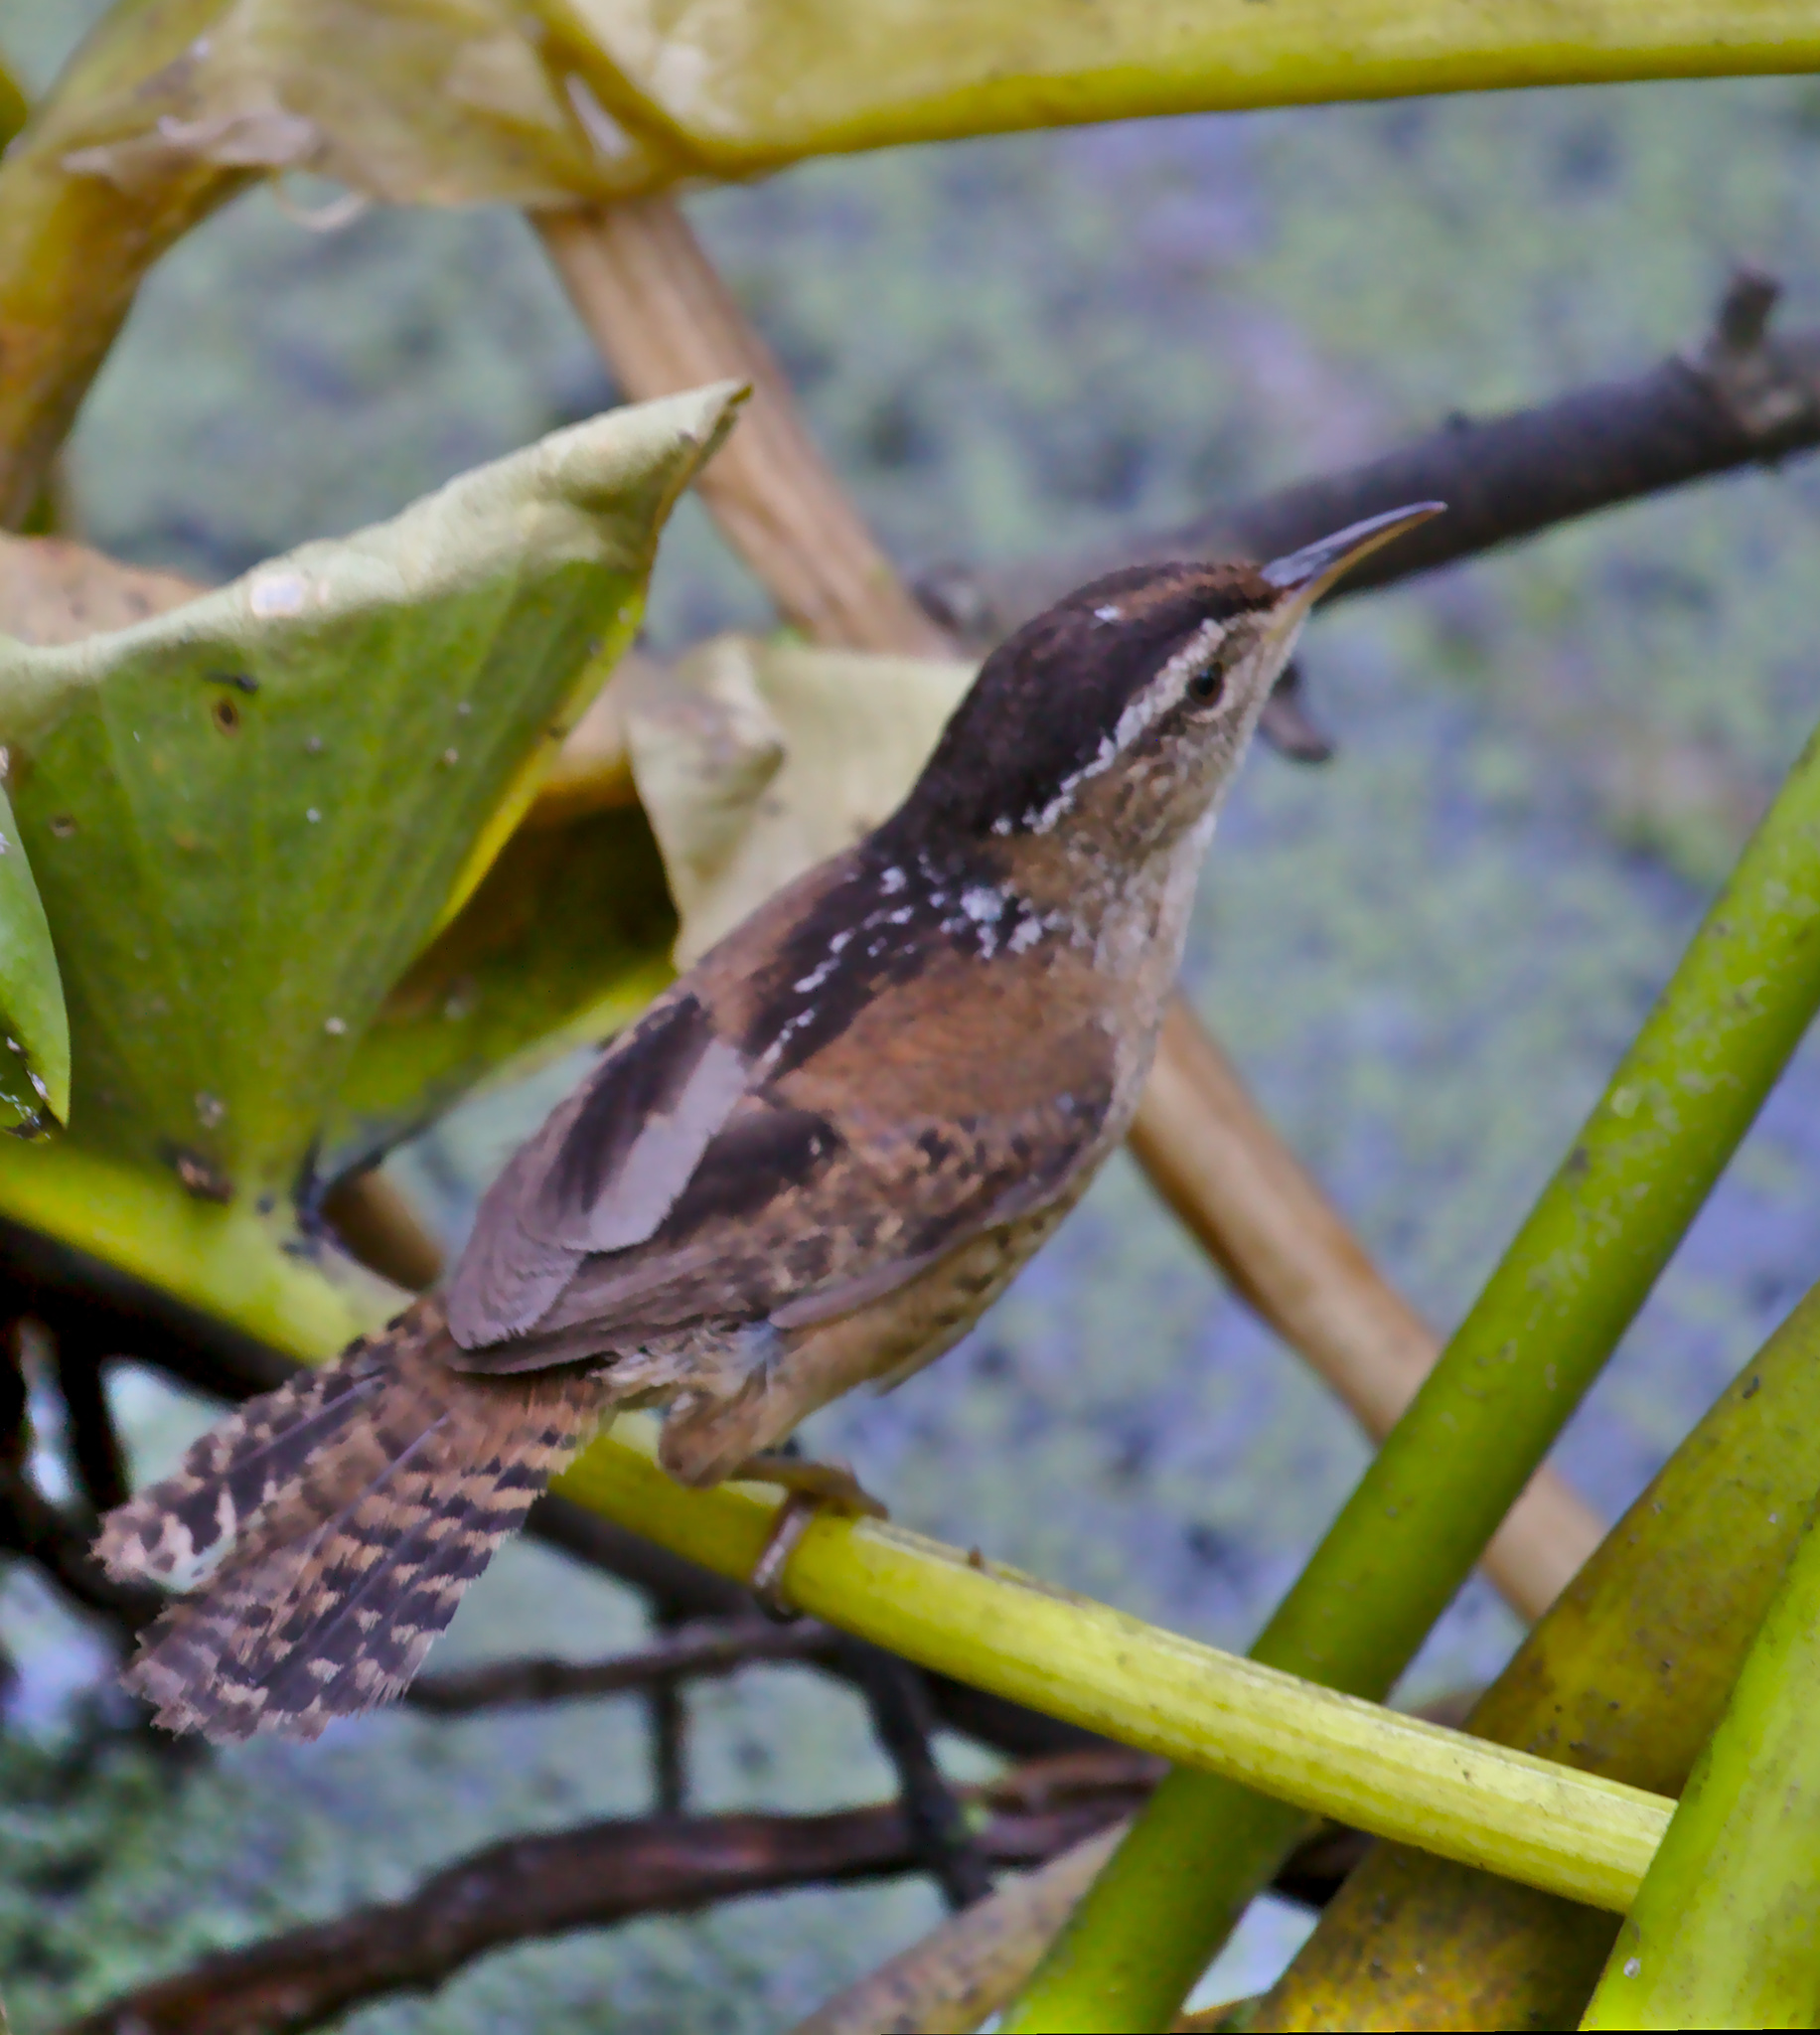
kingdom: Animalia
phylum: Chordata
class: Aves
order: Passeriformes
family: Troglodytidae
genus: Cistothorus
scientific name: Cistothorus palustris
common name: Marsh wren
